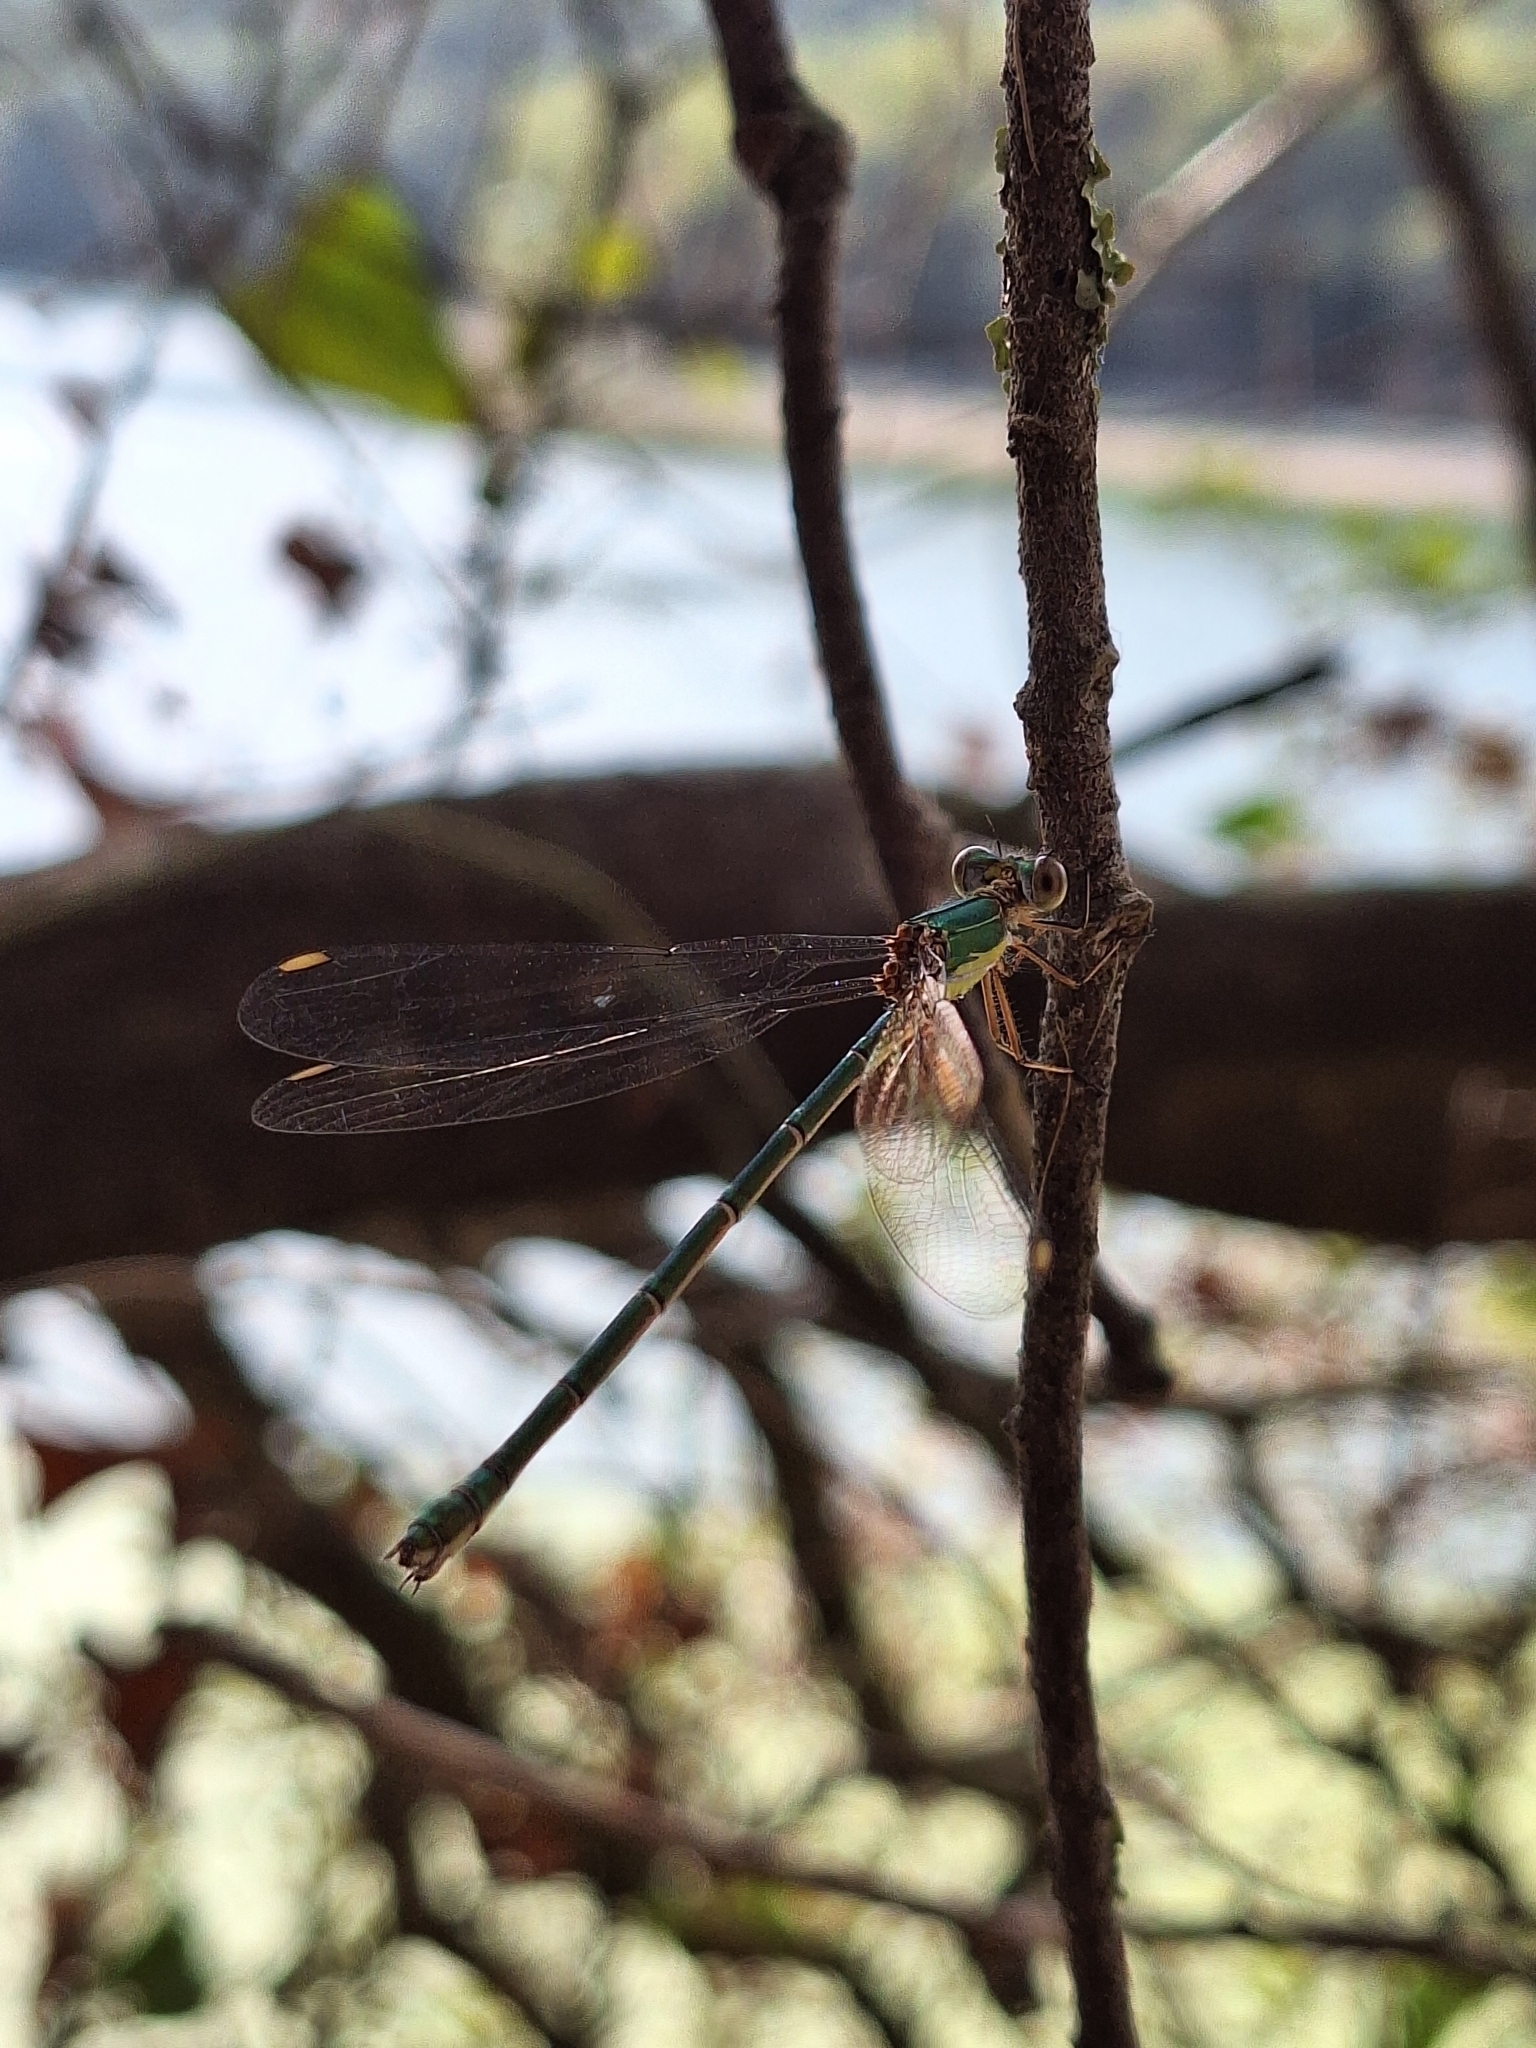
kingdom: Animalia
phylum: Arthropoda
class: Insecta
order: Odonata
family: Lestidae
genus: Chalcolestes
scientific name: Chalcolestes viridis
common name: Green emerald damselfly
